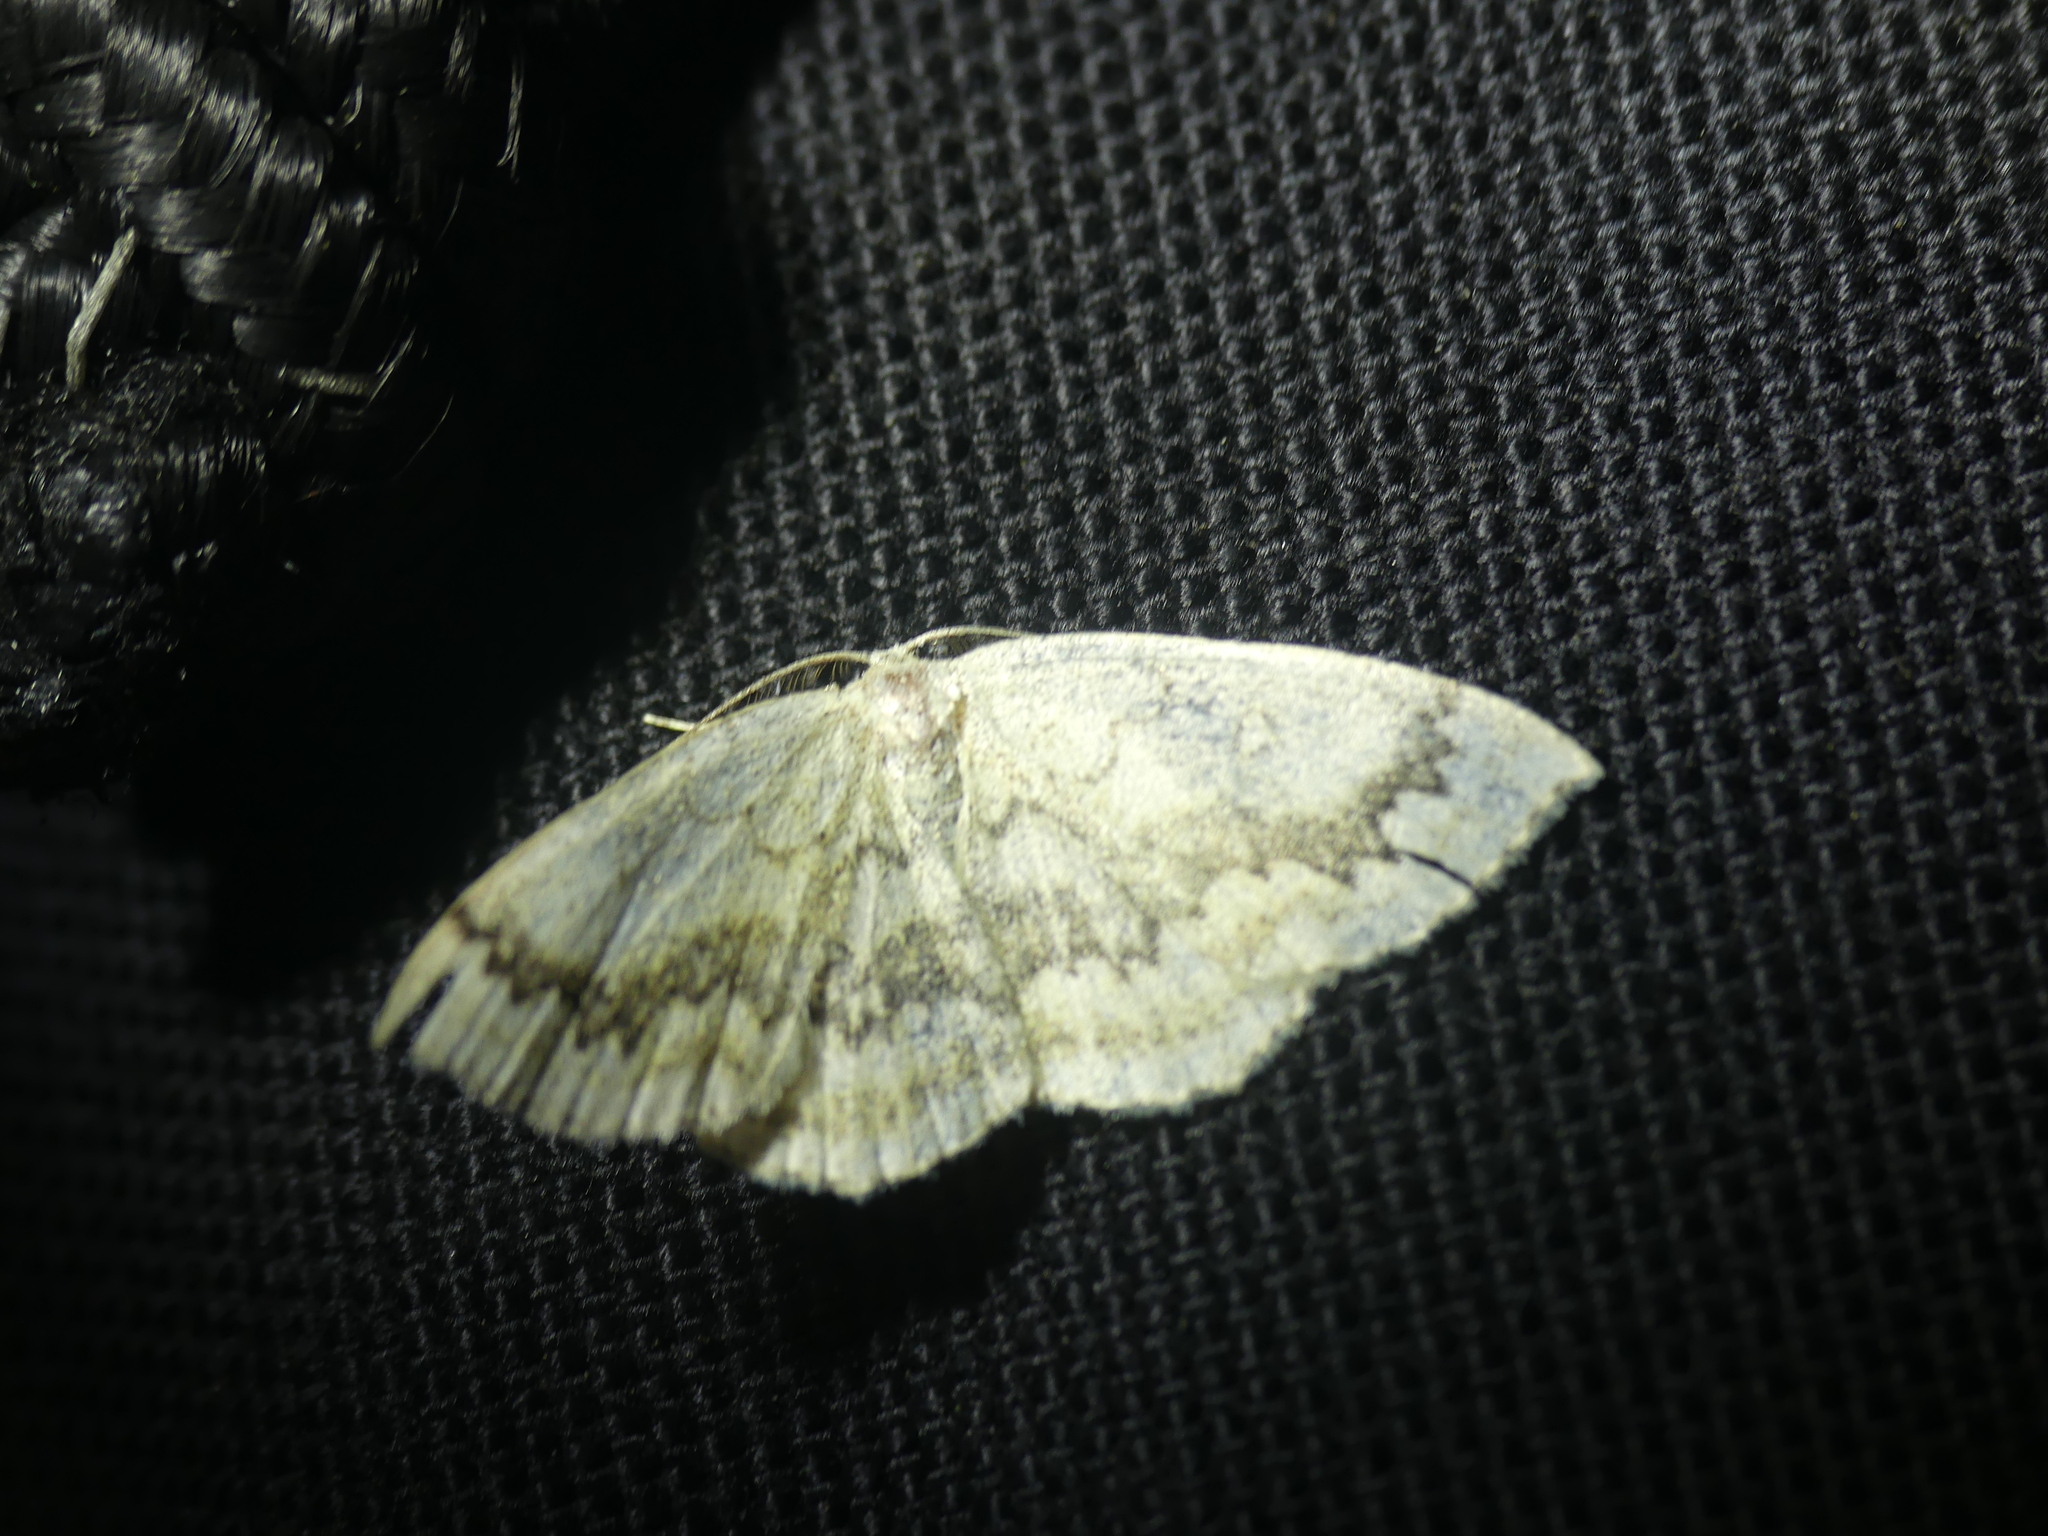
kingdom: Animalia
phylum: Arthropoda
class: Insecta
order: Lepidoptera
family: Geometridae
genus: Cyclophora
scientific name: Cyclophora annularia
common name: Mocha
